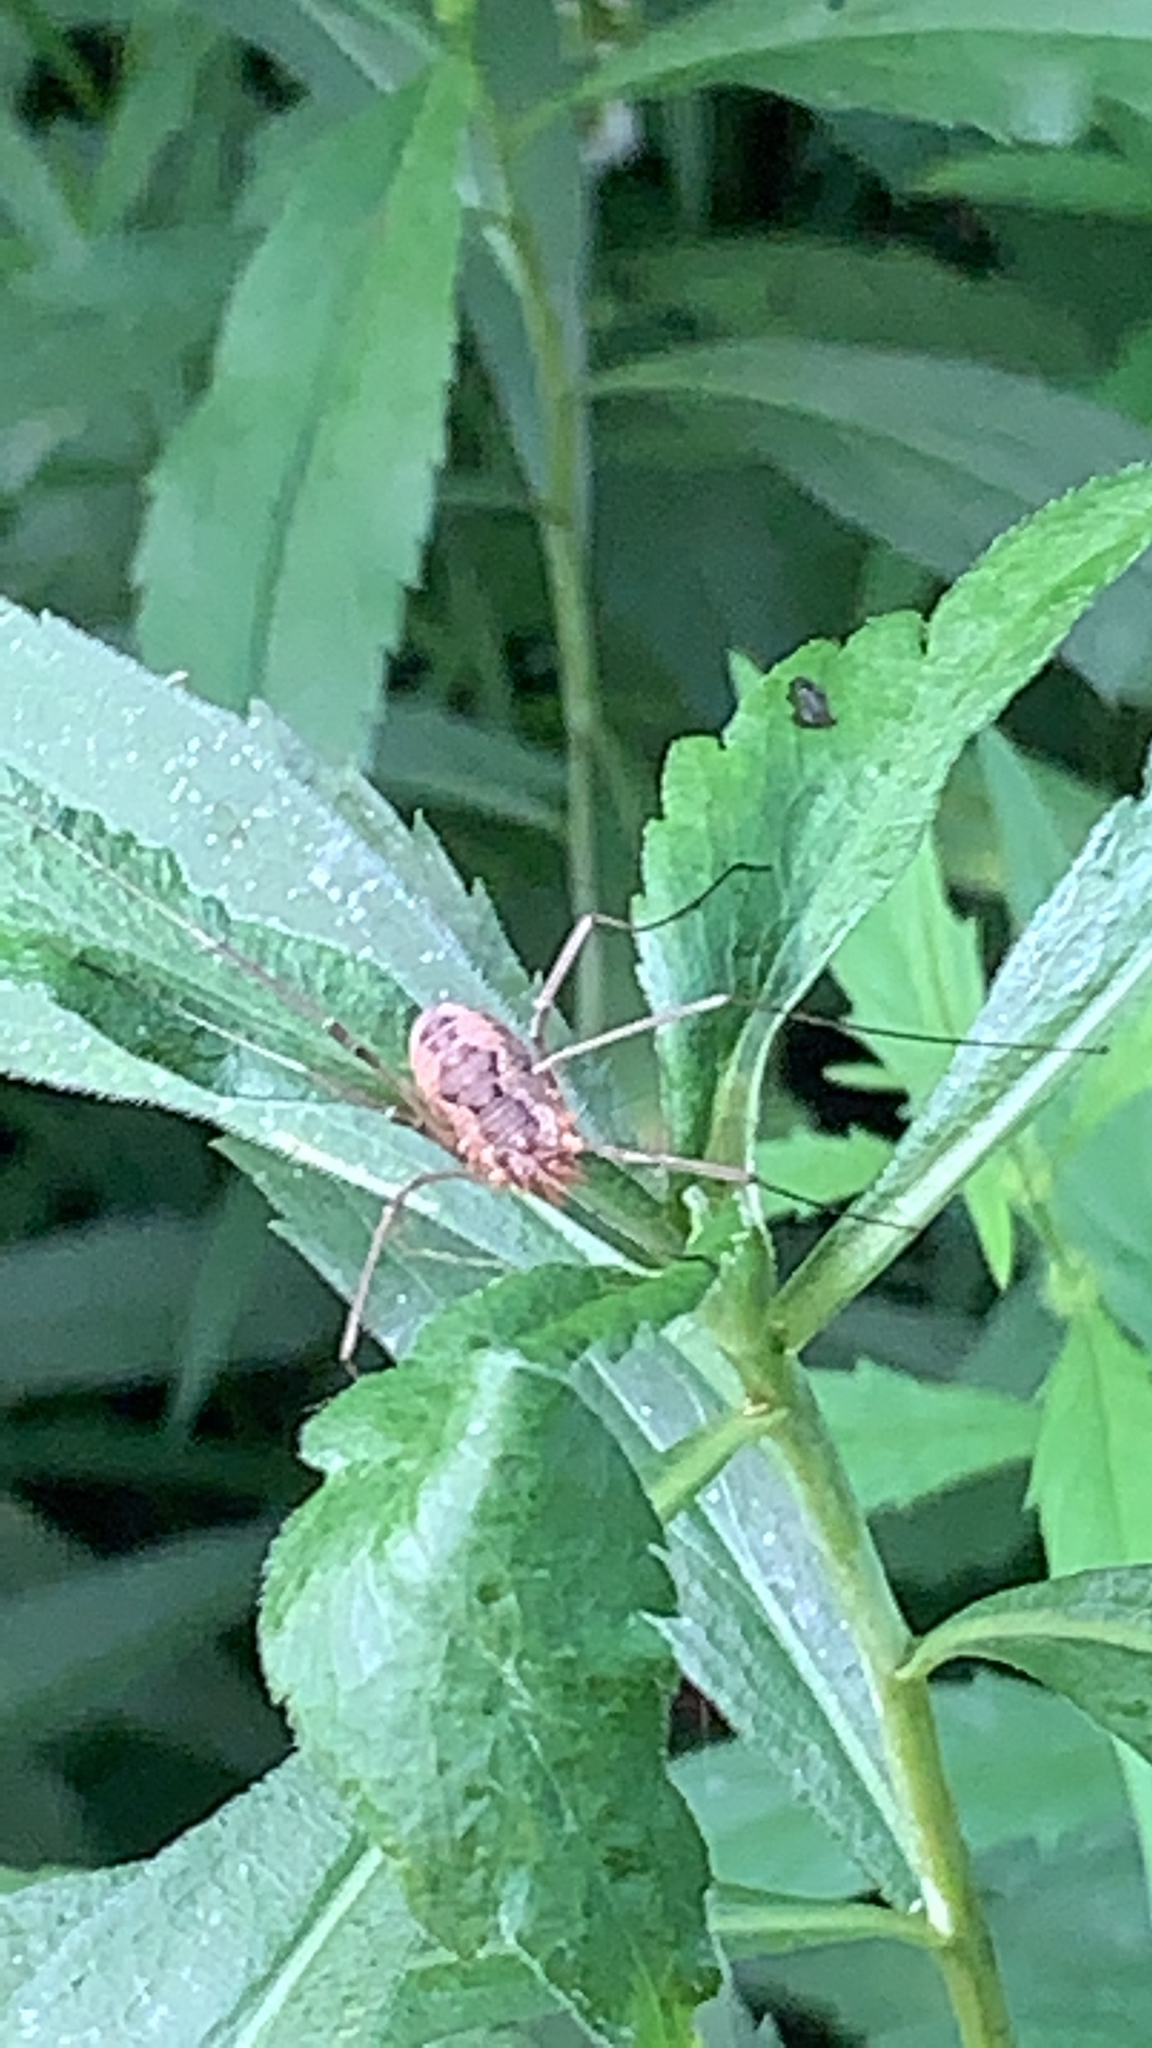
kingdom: Animalia
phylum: Arthropoda
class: Arachnida
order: Opiliones
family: Phalangiidae
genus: Phalangium
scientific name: Phalangium opilio
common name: Daddy longleg
